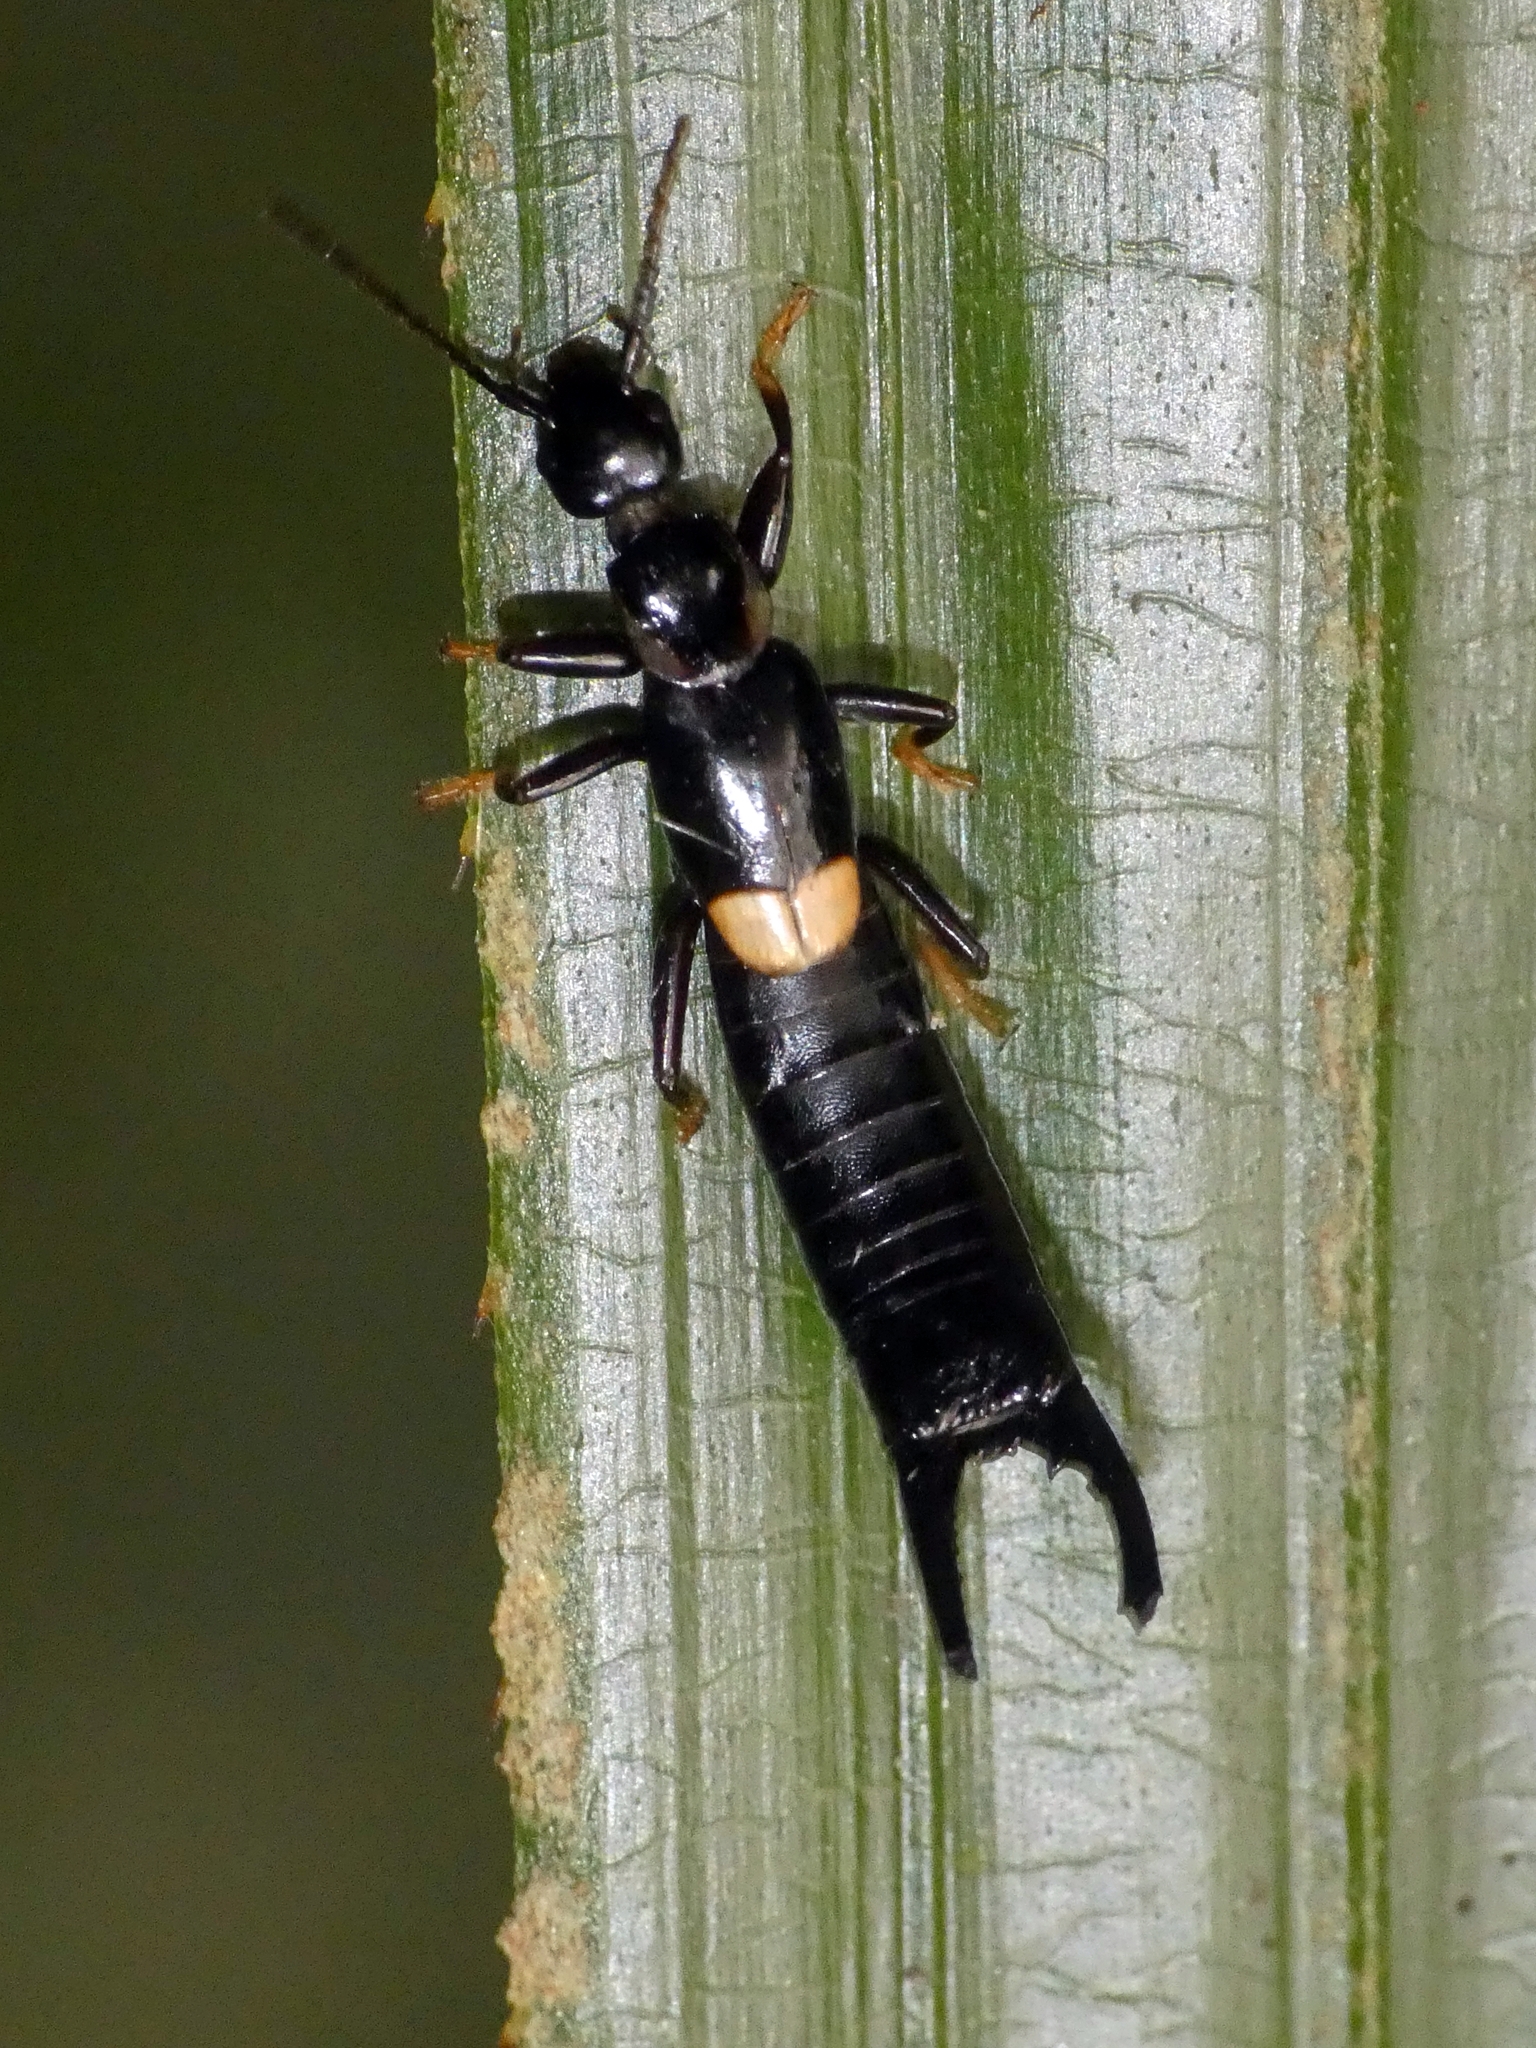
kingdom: Animalia
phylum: Arthropoda
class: Insecta
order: Dermaptera
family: Chelisochidae
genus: Proreus
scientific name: Proreus duroides
